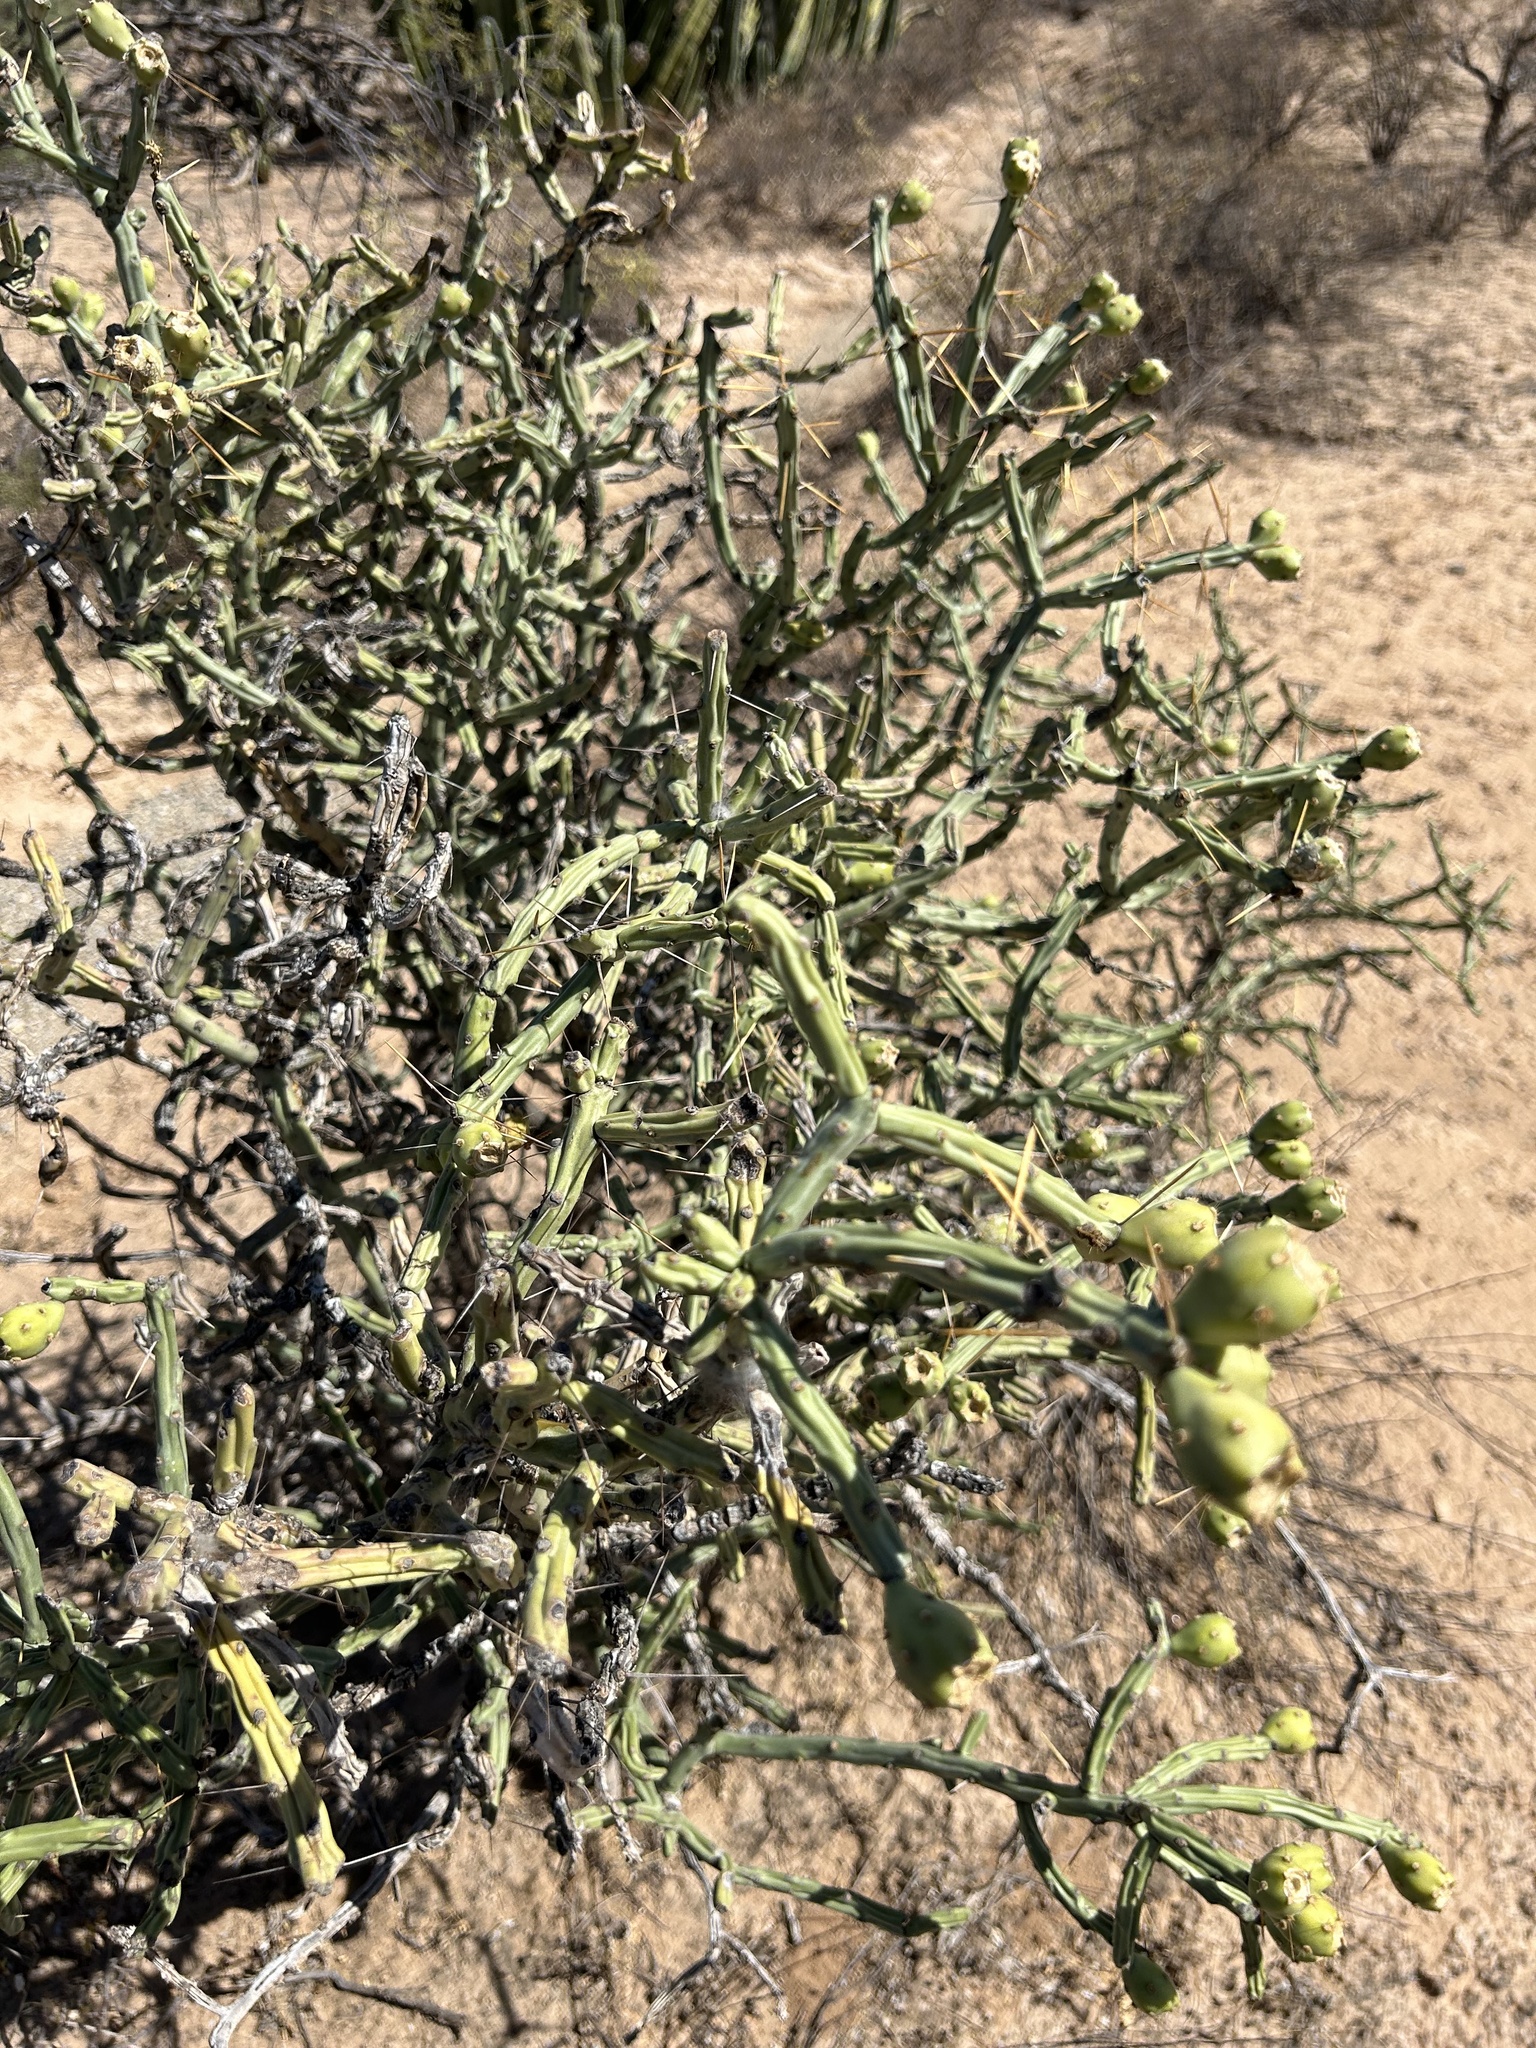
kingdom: Plantae
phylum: Tracheophyta
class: Magnoliopsida
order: Caryophyllales
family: Cactaceae
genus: Cylindropuntia
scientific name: Cylindropuntia thurberi
